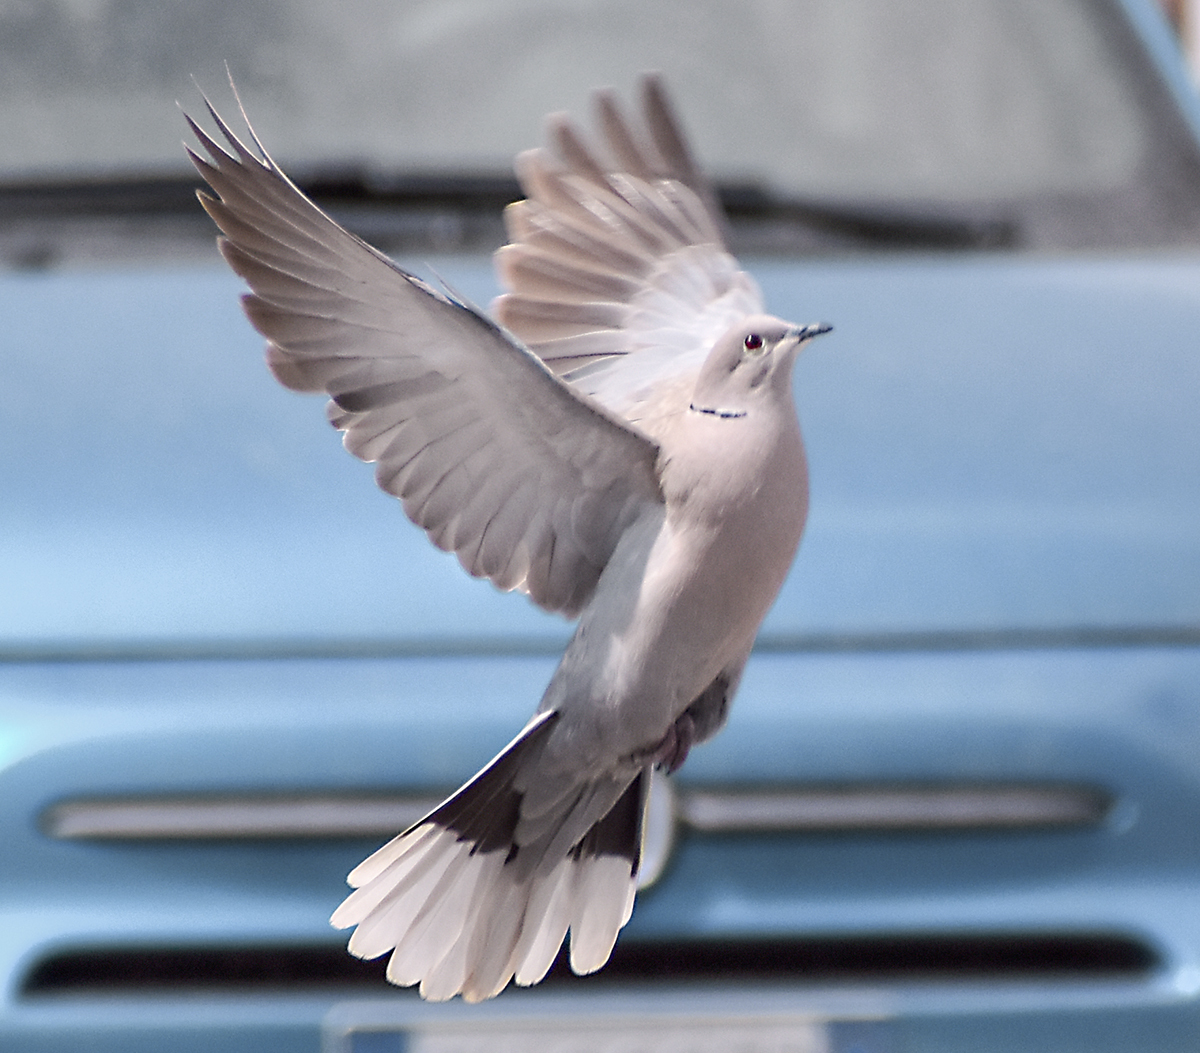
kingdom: Animalia
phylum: Chordata
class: Aves
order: Columbiformes
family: Columbidae
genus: Streptopelia
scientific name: Streptopelia decaocto
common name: Eurasian collared dove
